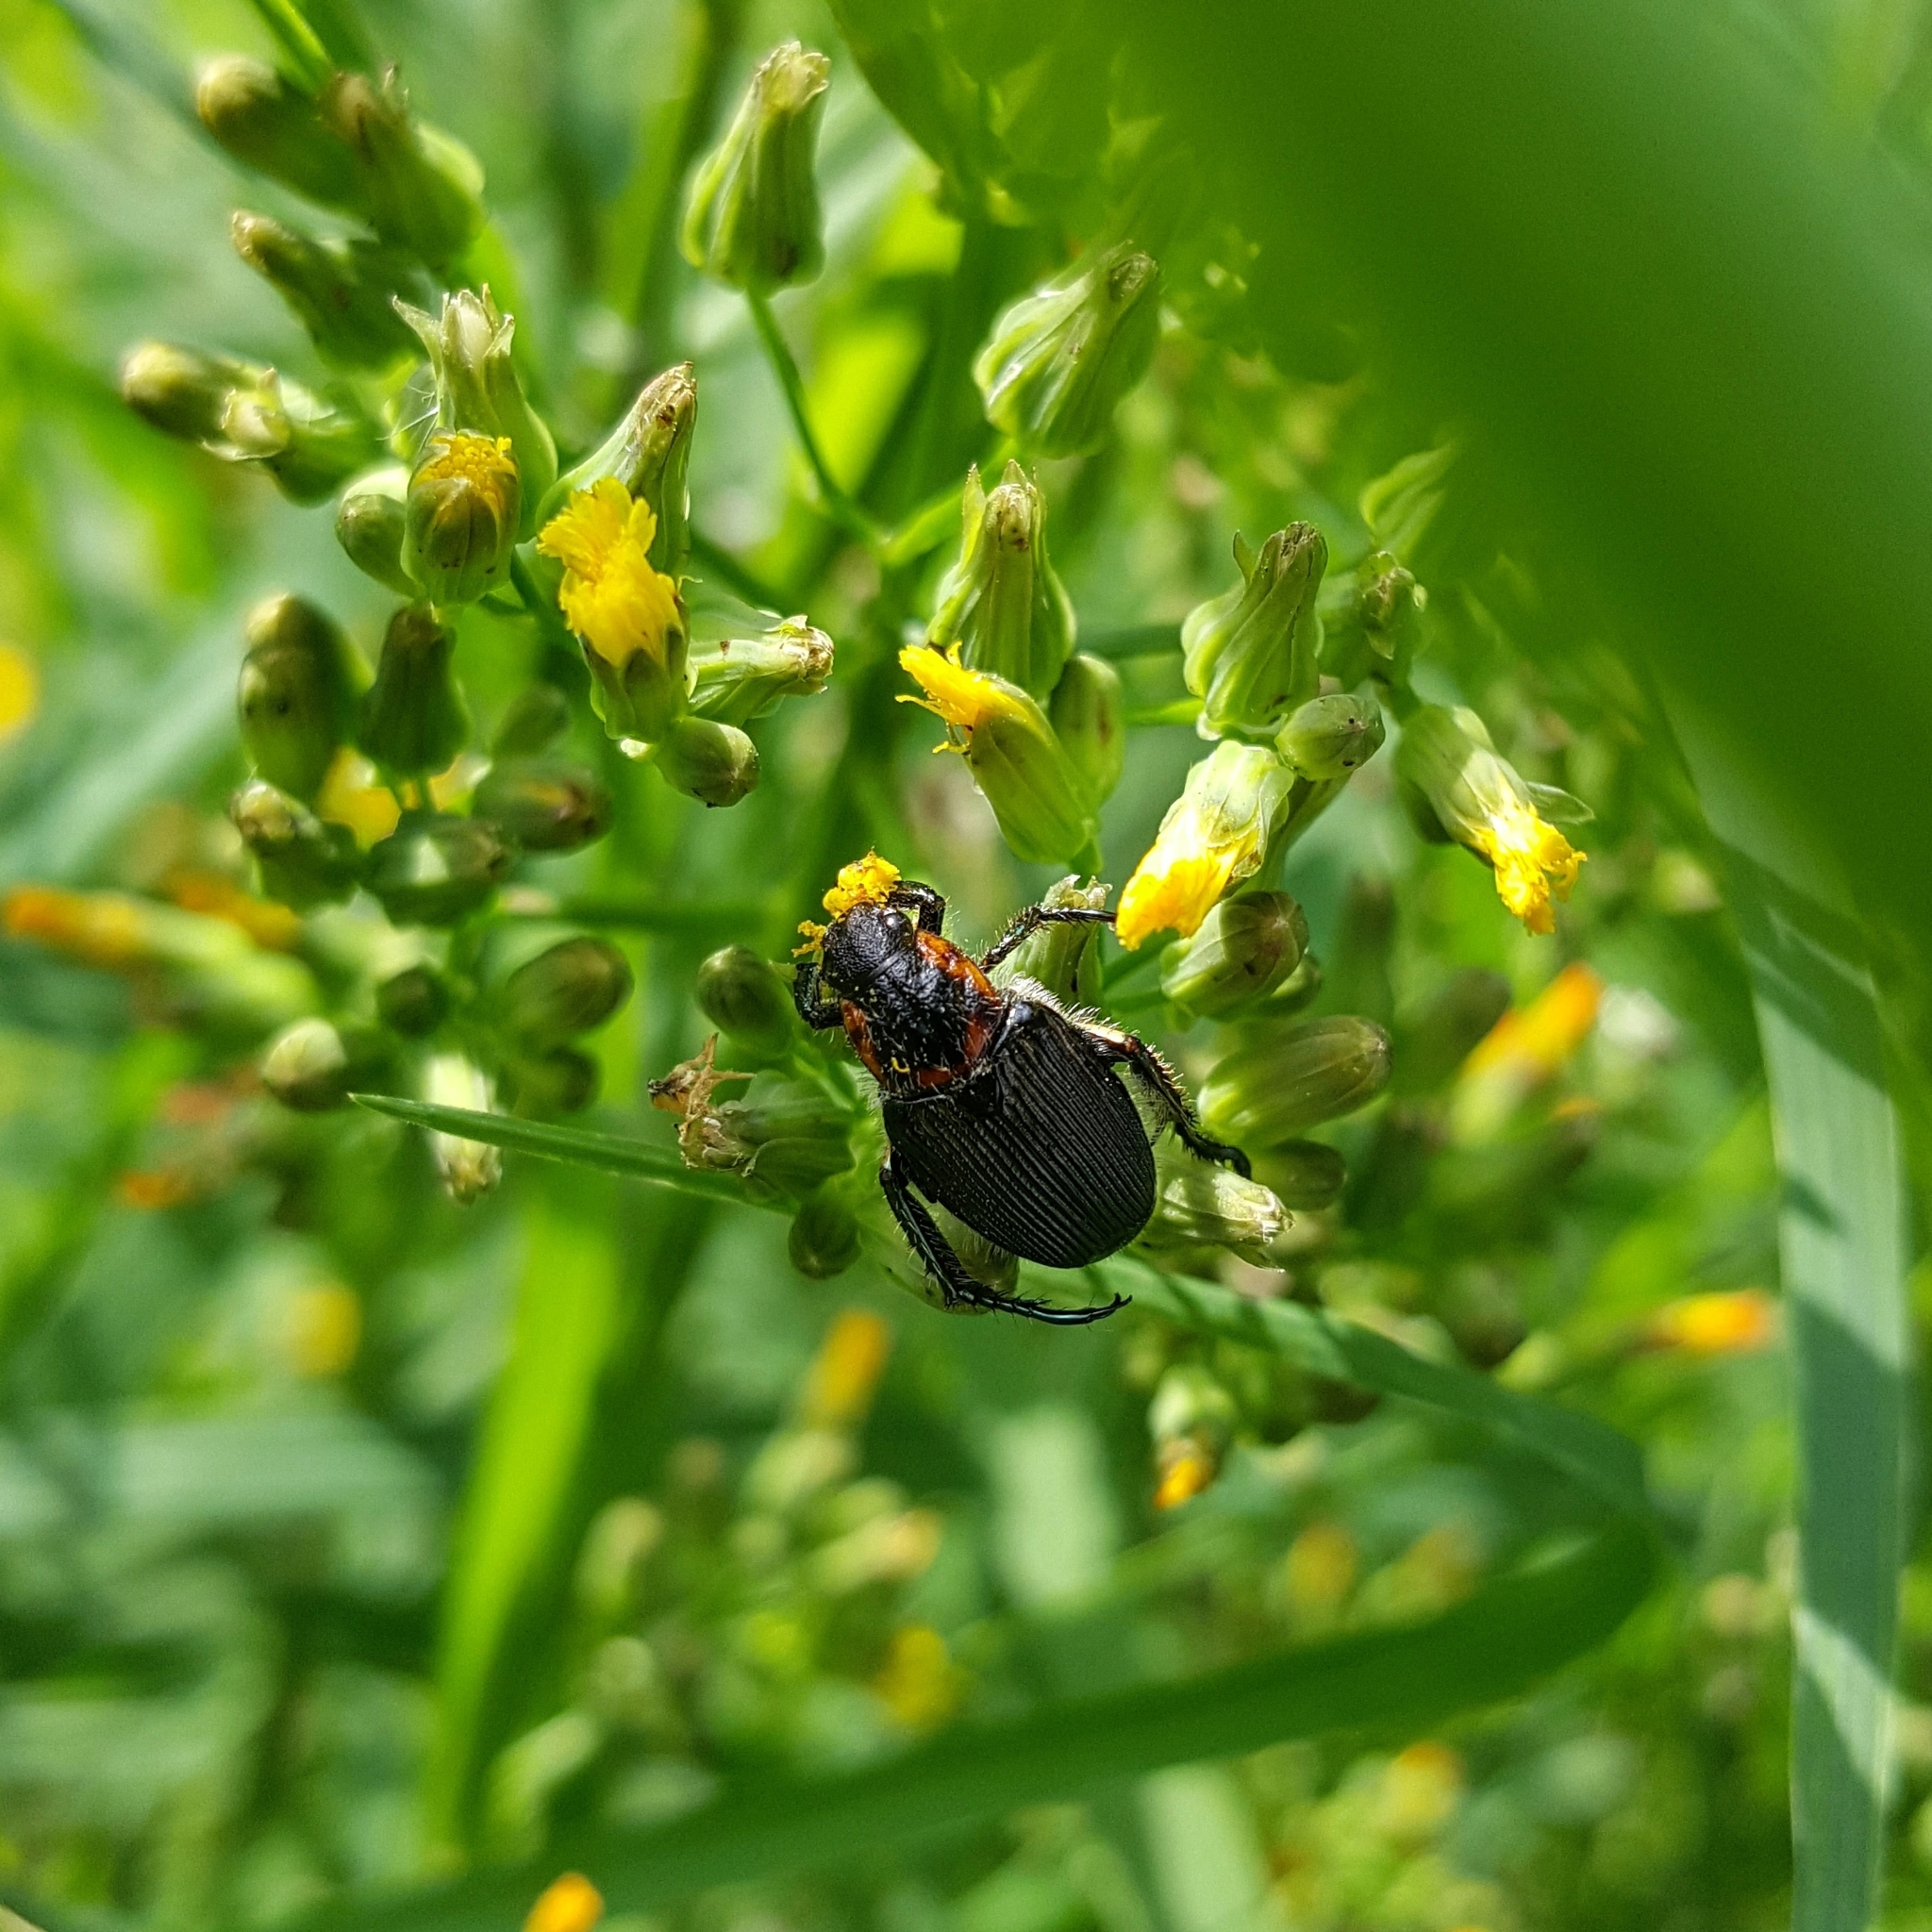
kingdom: Animalia
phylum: Arthropoda
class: Insecta
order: Coleoptera
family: Scarabaeidae
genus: Strigoderma
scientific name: Strigoderma sulcipennis
